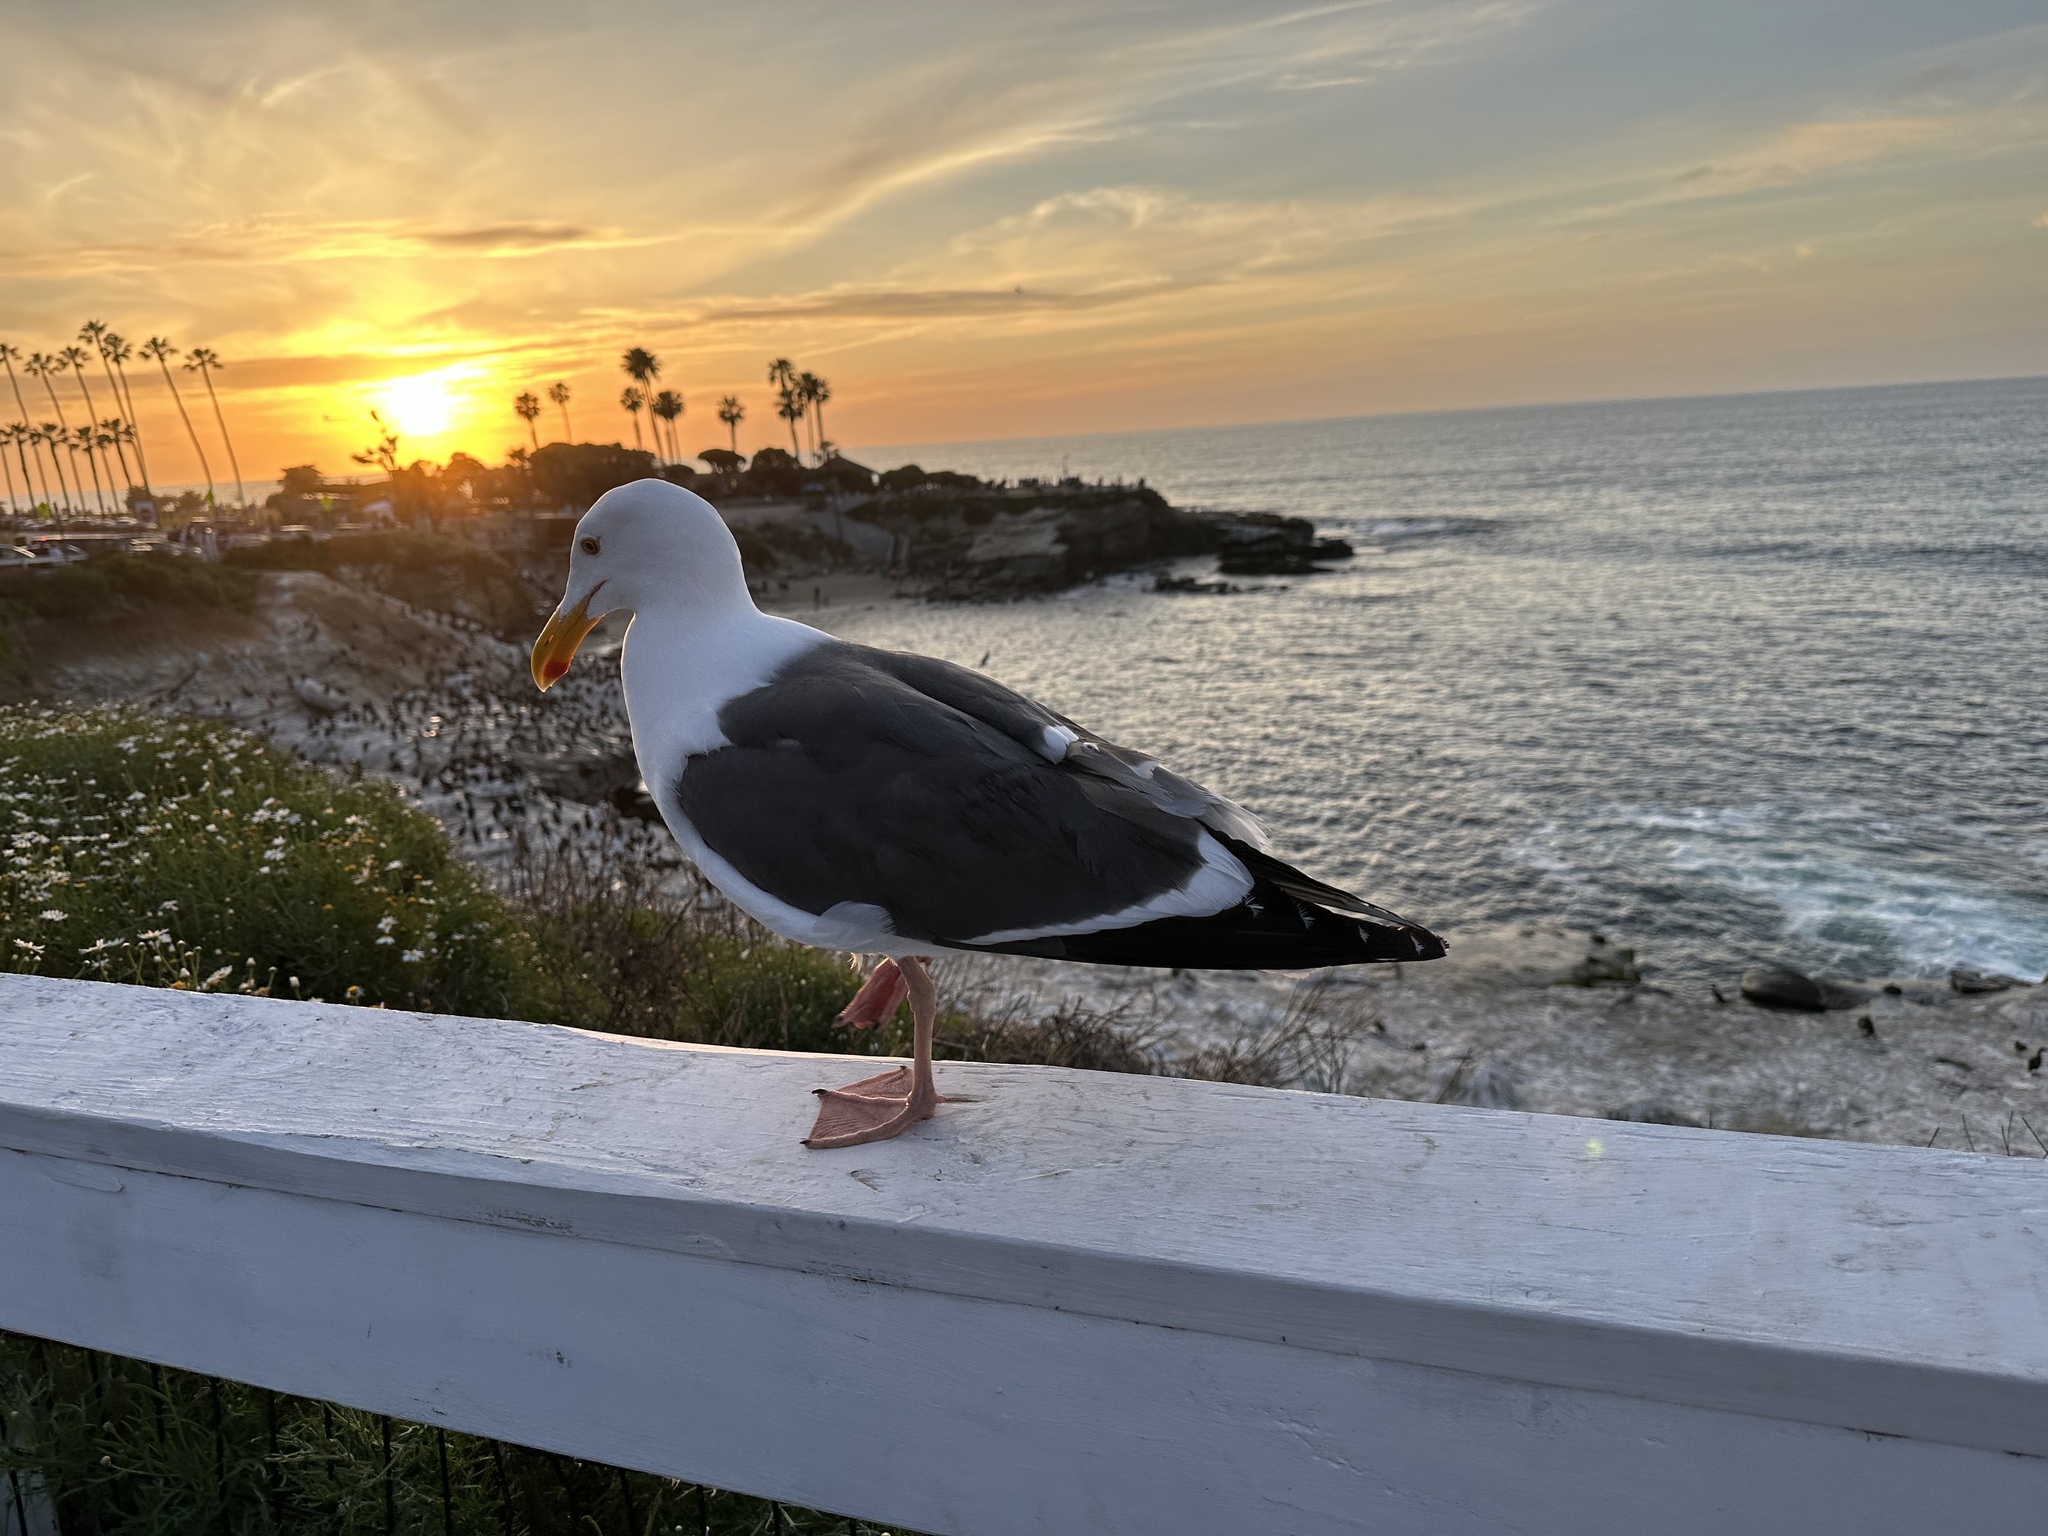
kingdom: Animalia
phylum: Chordata
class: Aves
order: Charadriiformes
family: Laridae
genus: Larus
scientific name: Larus occidentalis
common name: Western gull
